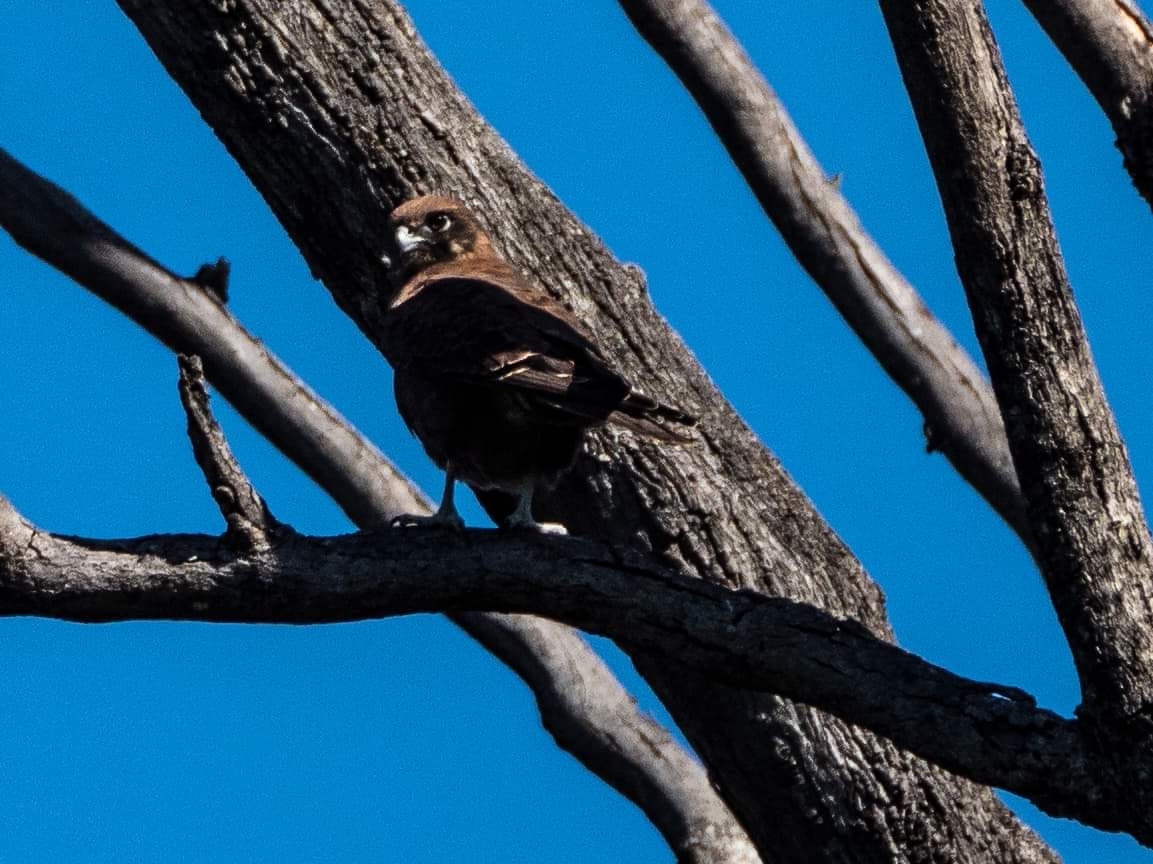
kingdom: Animalia
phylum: Chordata
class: Aves
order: Falconiformes
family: Falconidae
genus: Falco
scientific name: Falco berigora
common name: Brown falcon
